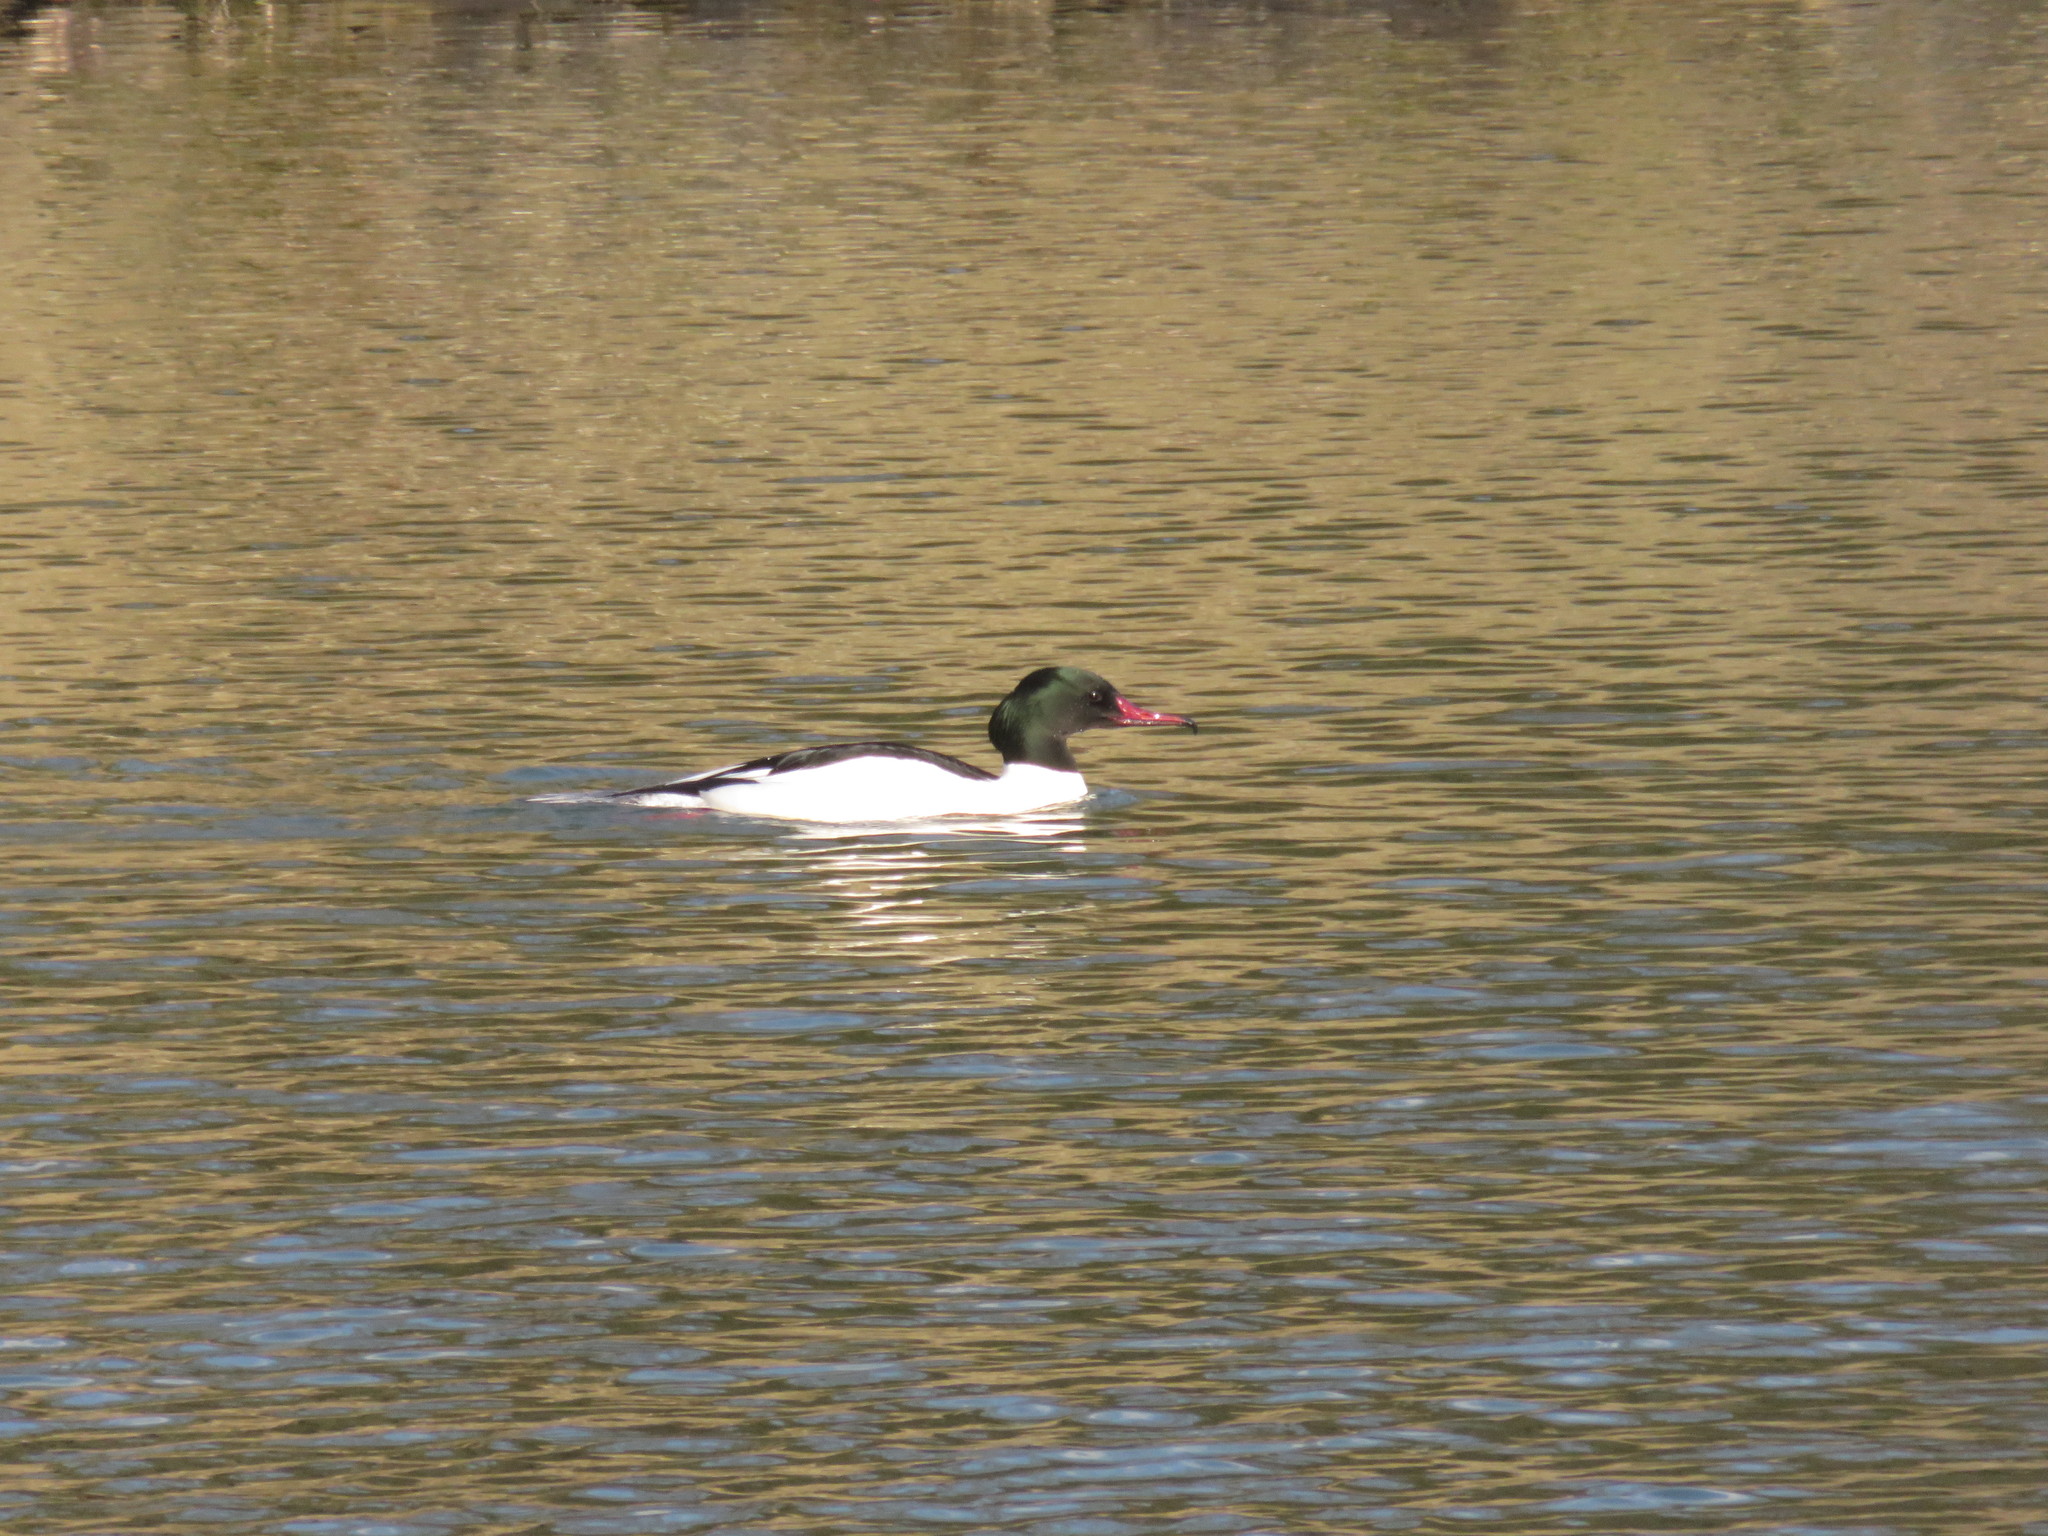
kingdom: Animalia
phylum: Chordata
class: Aves
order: Anseriformes
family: Anatidae
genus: Mergus
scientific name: Mergus merganser
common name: Common merganser
